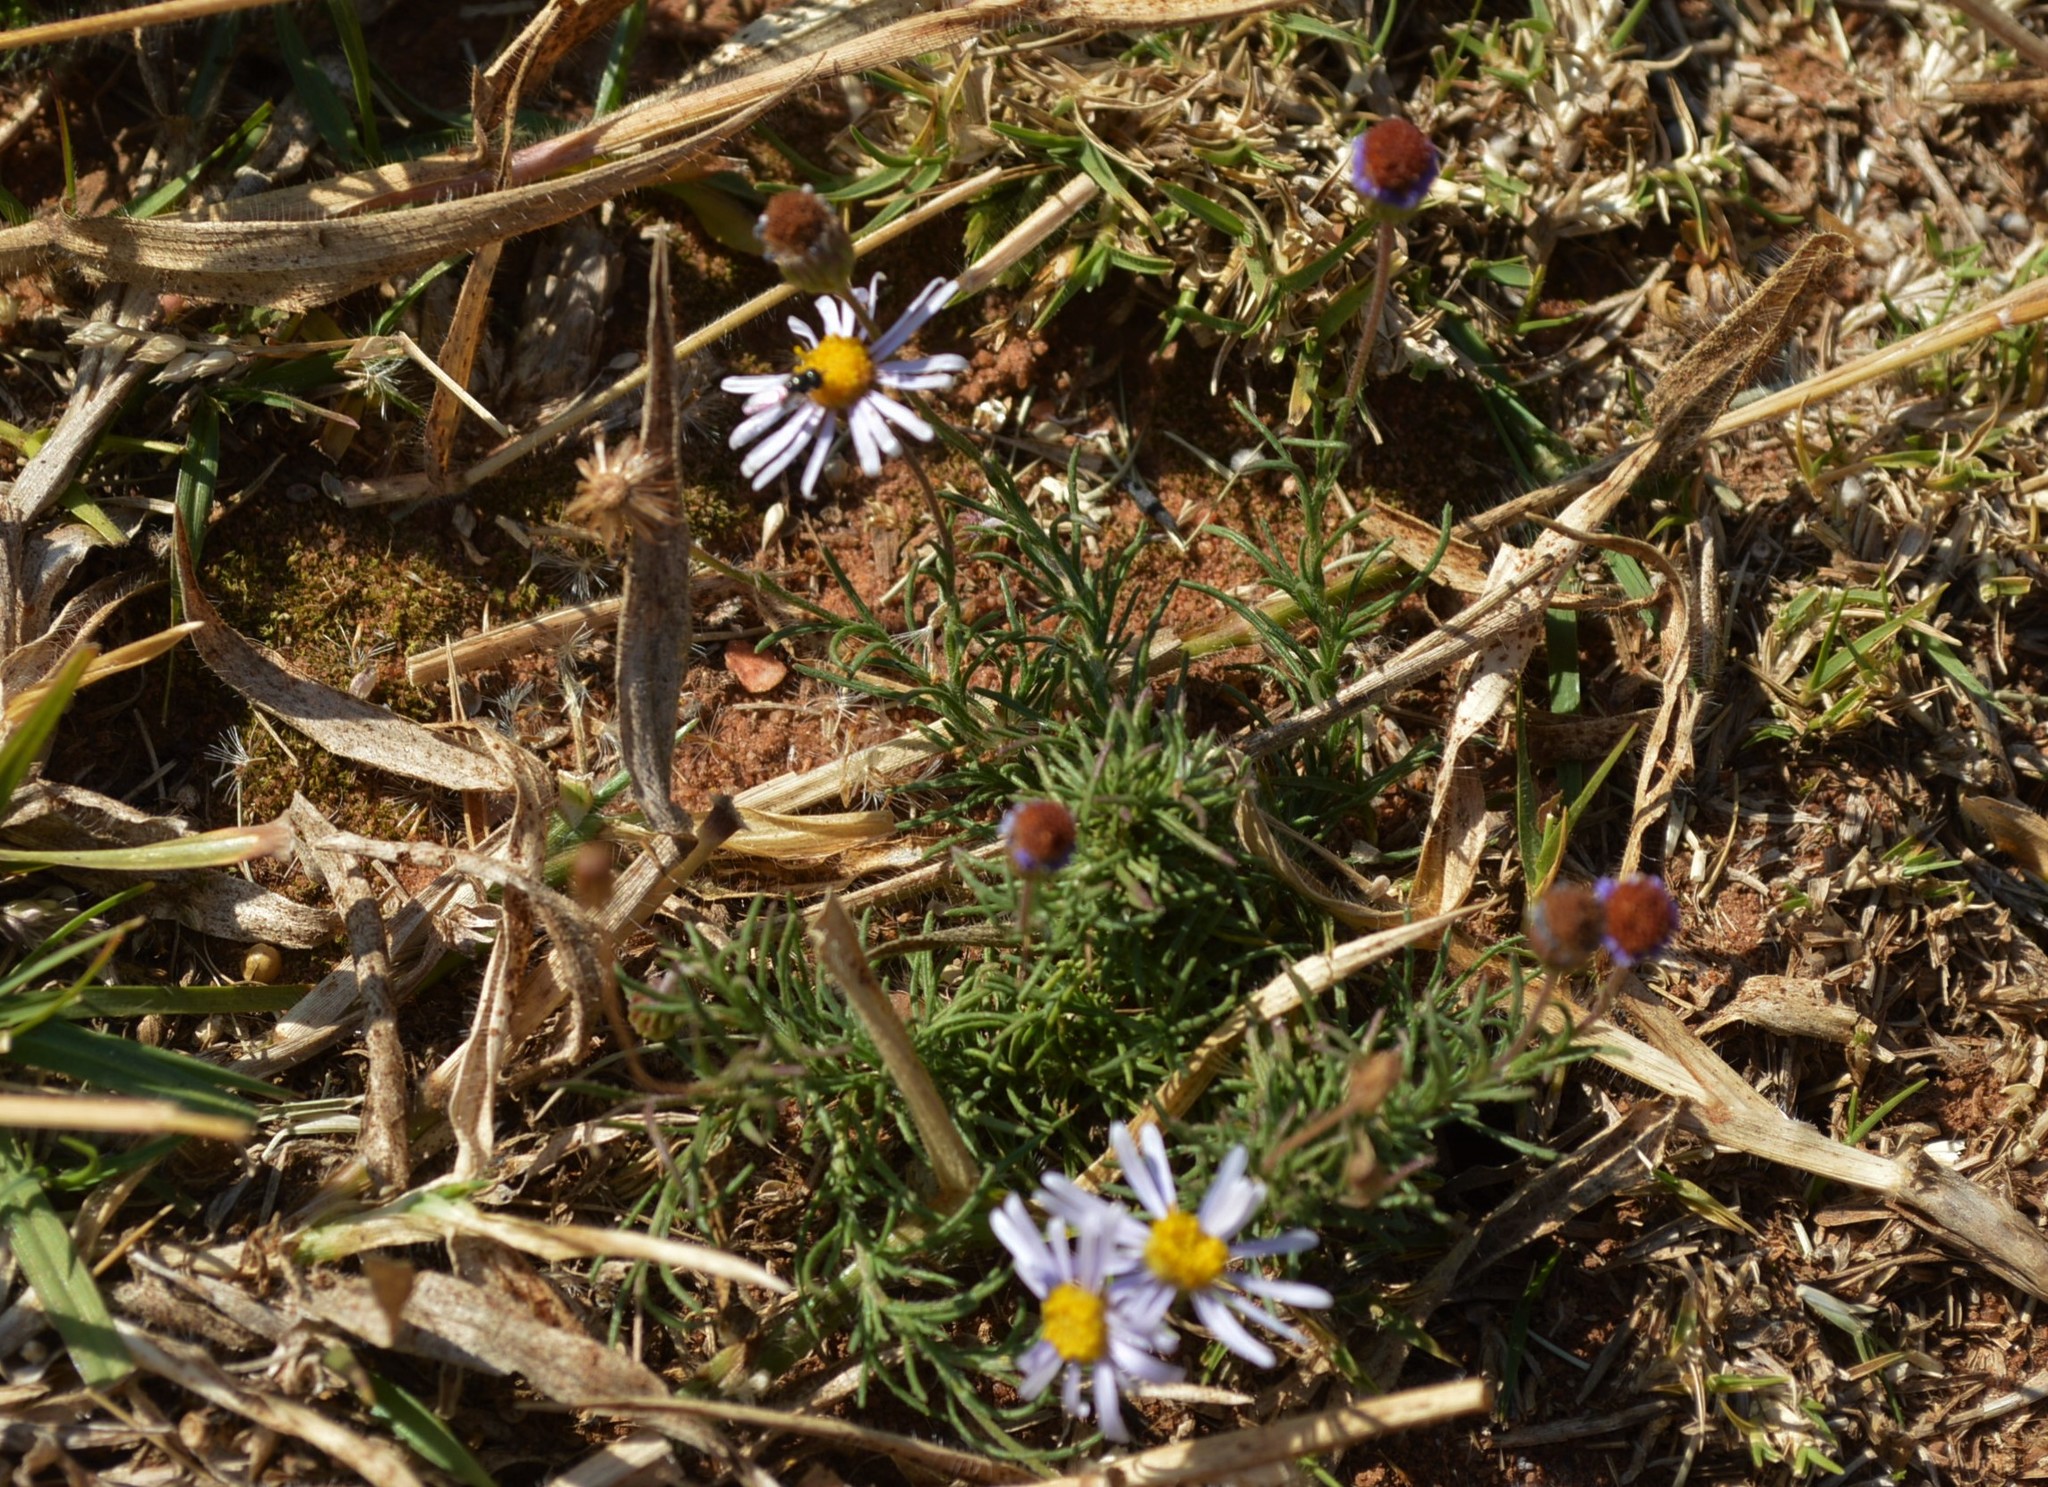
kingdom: Plantae
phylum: Tracheophyta
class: Magnoliopsida
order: Asterales
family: Asteraceae
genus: Felicia
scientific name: Felicia muricata
